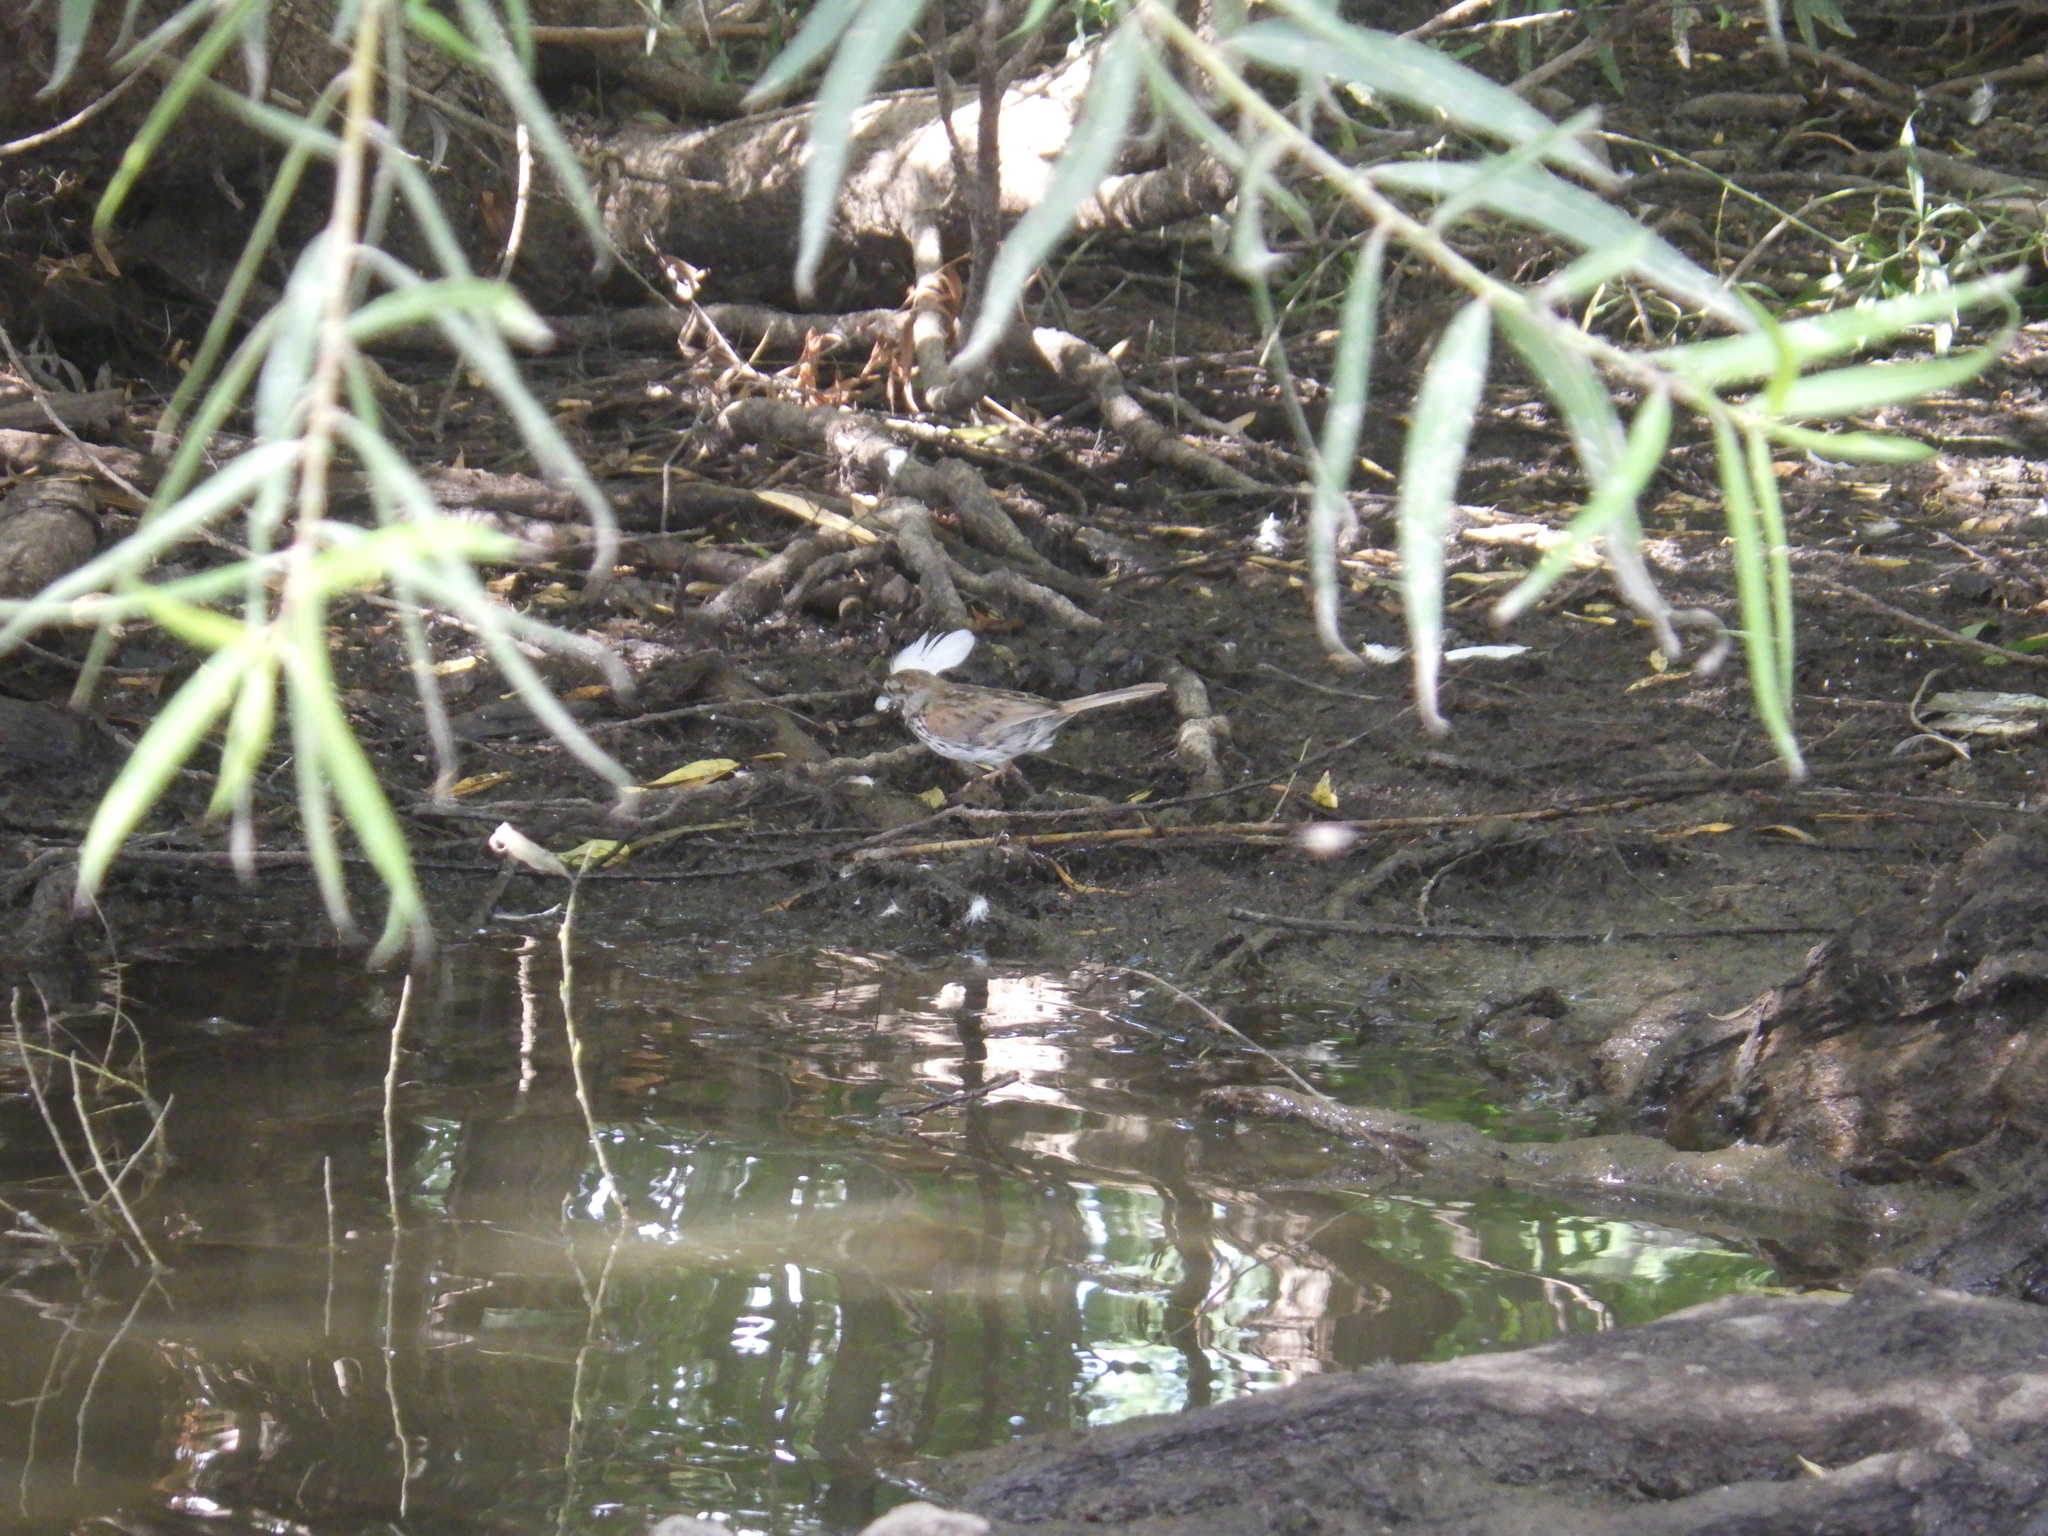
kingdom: Animalia
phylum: Chordata
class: Aves
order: Passeriformes
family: Passerellidae
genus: Melospiza
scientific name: Melospiza melodia
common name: Song sparrow
